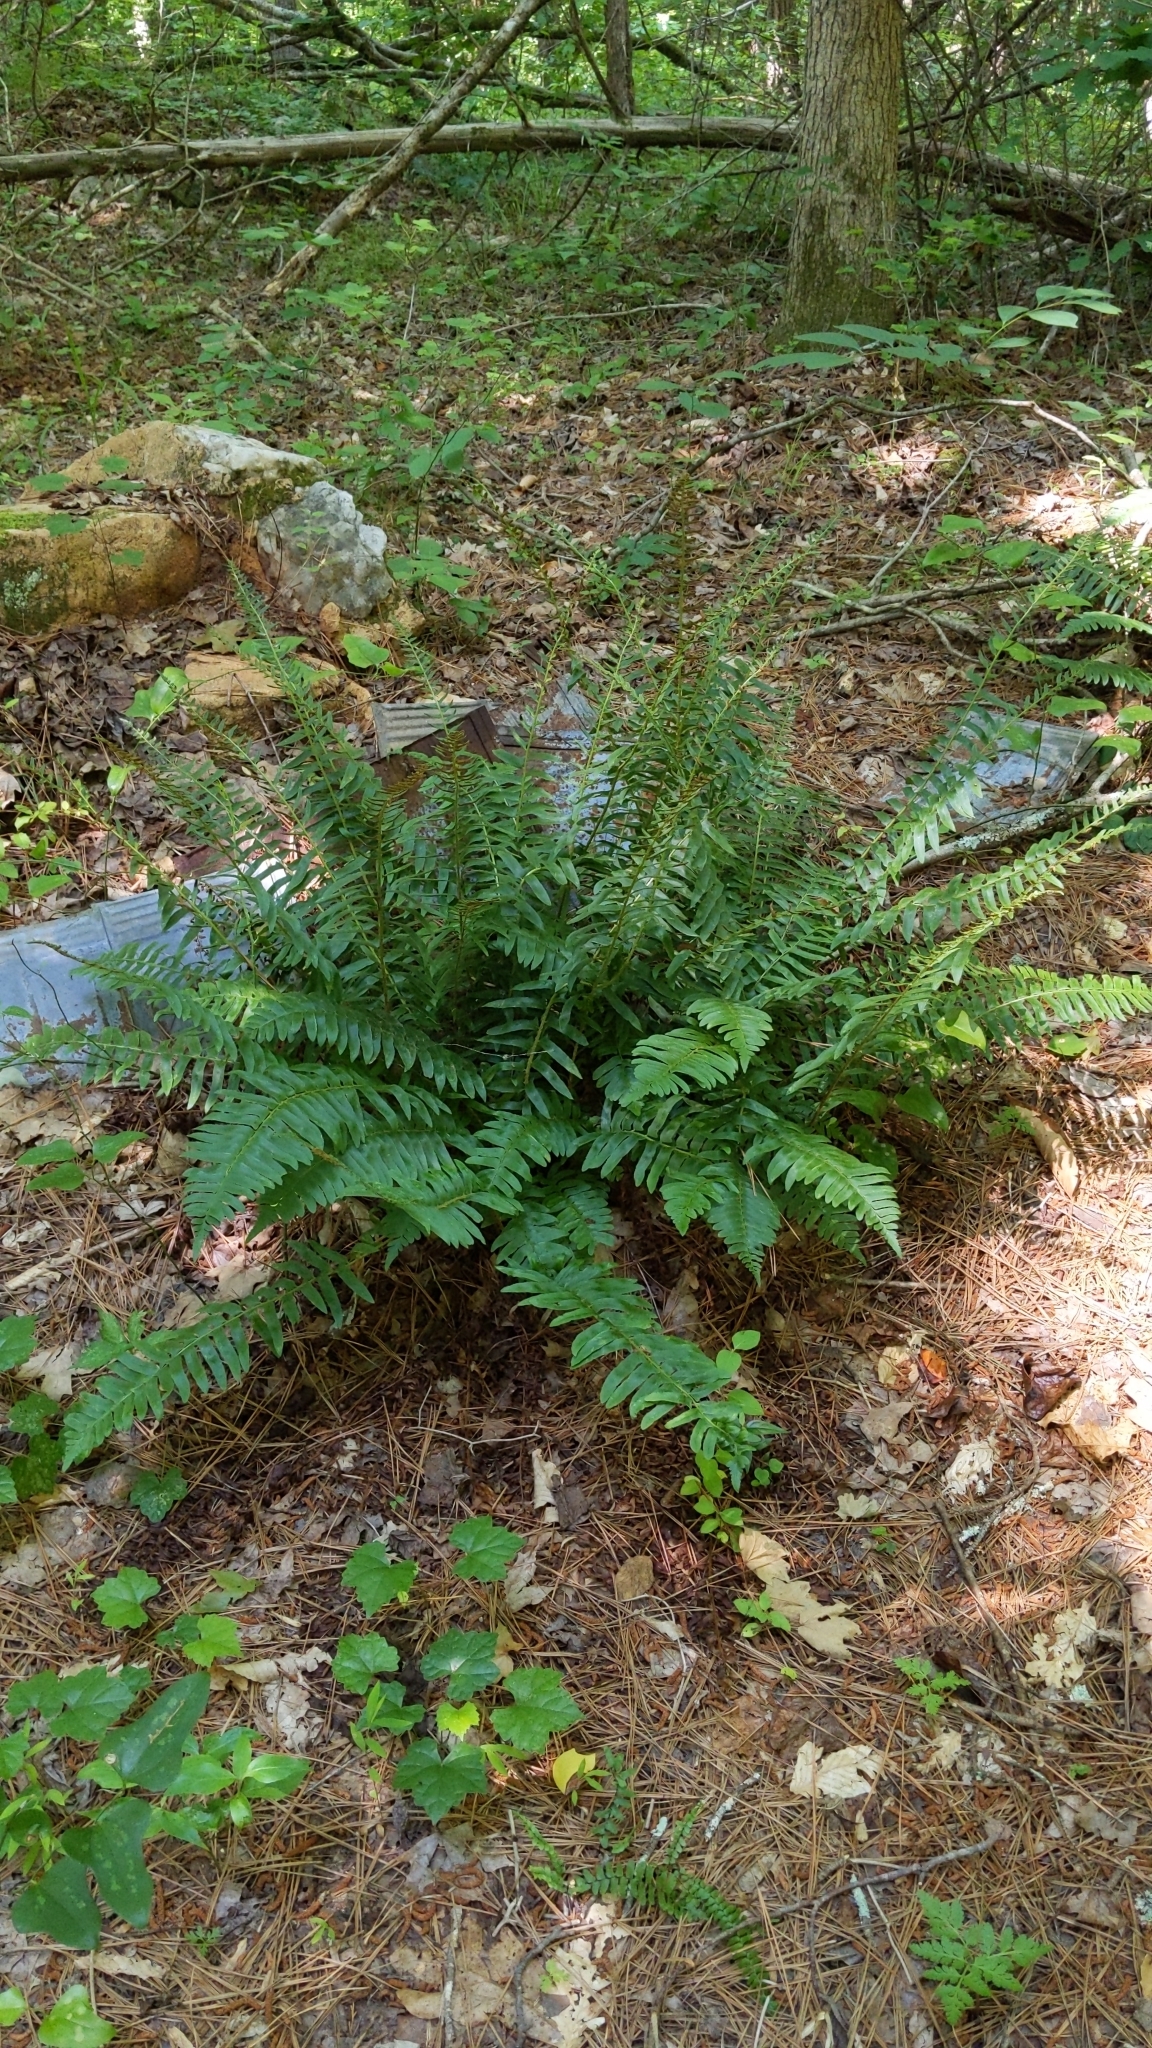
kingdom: Plantae
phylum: Tracheophyta
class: Polypodiopsida
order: Polypodiales
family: Dryopteridaceae
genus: Polystichum
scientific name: Polystichum acrostichoides
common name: Christmas fern
